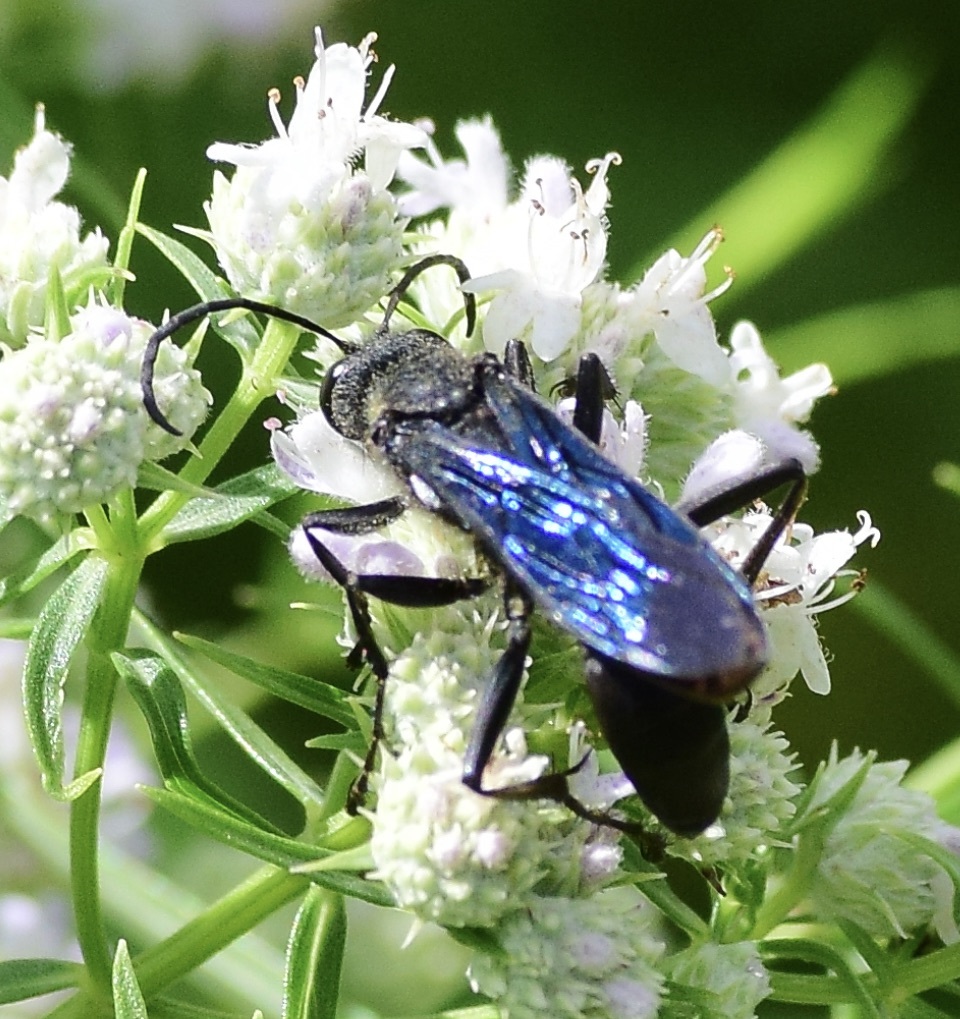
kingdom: Animalia
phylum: Arthropoda
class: Insecta
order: Hymenoptera
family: Sphecidae
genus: Sphex
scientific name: Sphex pensylvanicus
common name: Great black digger wasp
